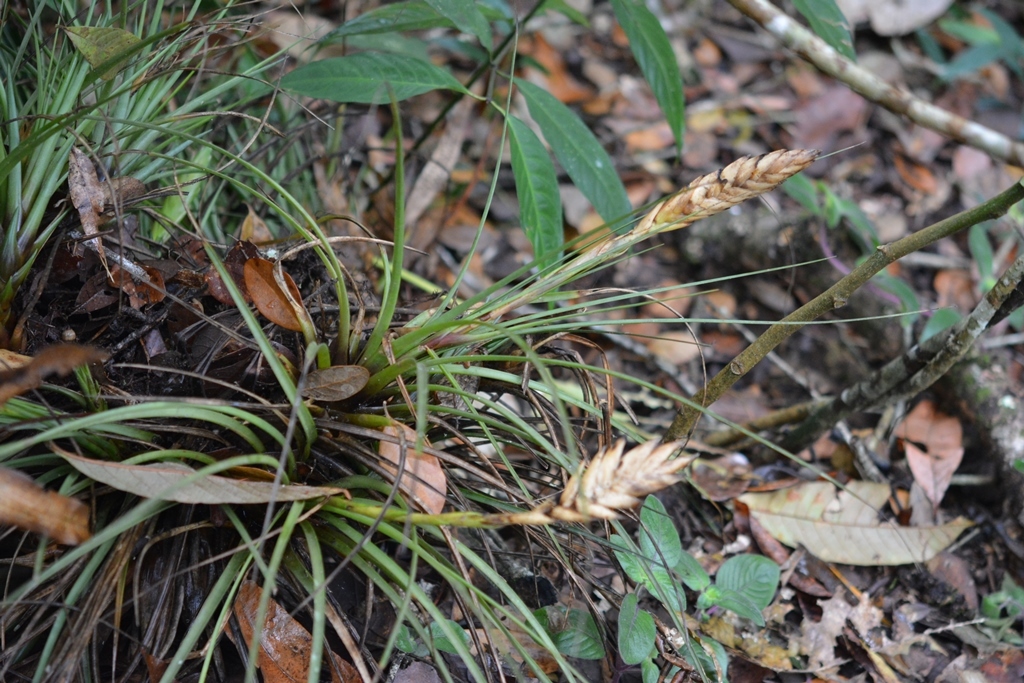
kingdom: Plantae
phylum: Tracheophyta
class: Liliopsida
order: Poales
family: Bromeliaceae
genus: Tillandsia
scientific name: Tillandsia tricolor
